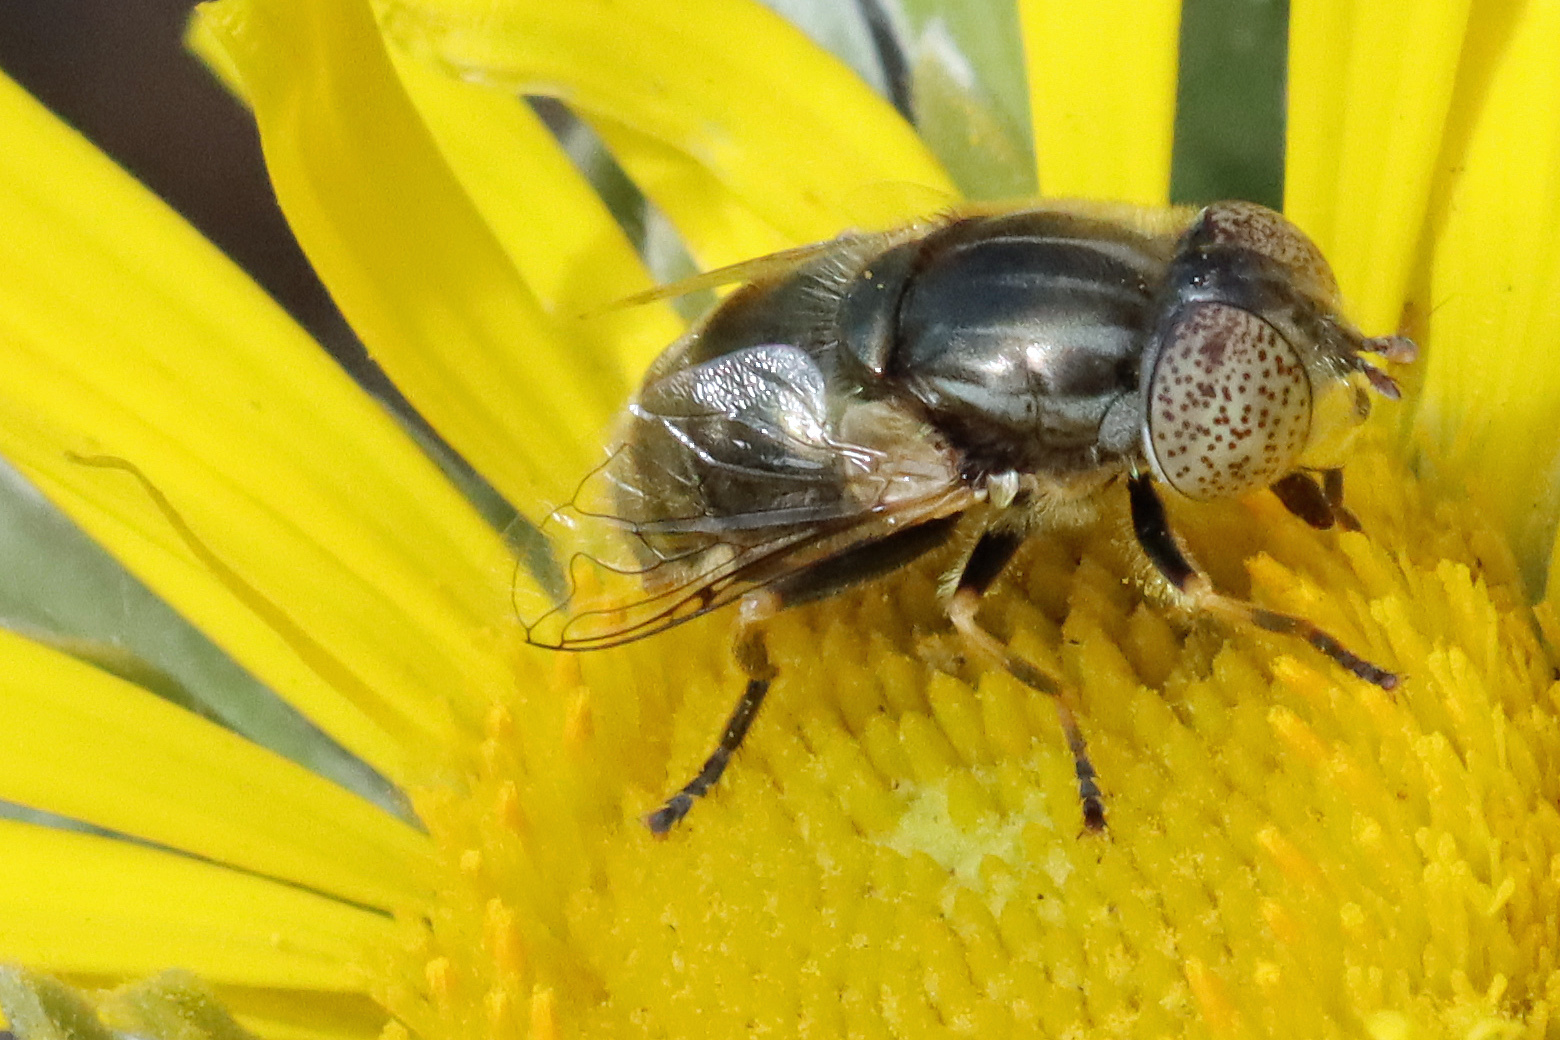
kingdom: Animalia
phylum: Arthropoda
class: Insecta
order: Diptera
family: Syrphidae
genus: Eristalinus
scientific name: Eristalinus aeneus
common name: Syrphid fly
